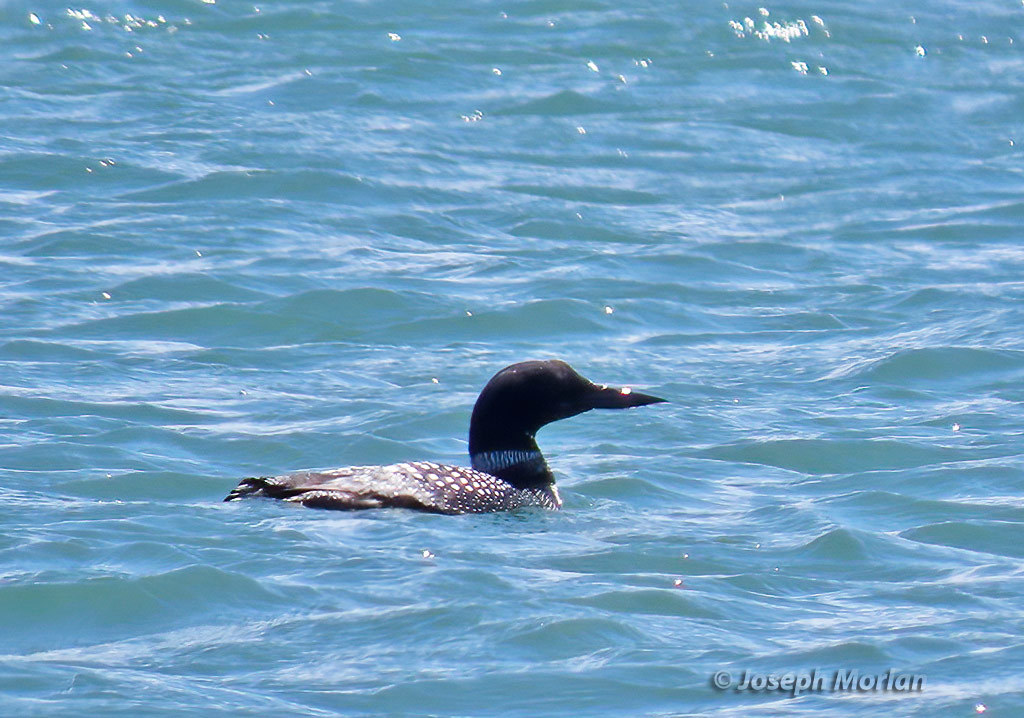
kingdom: Animalia
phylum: Chordata
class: Aves
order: Gaviiformes
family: Gaviidae
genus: Gavia
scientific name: Gavia immer
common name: Common loon
